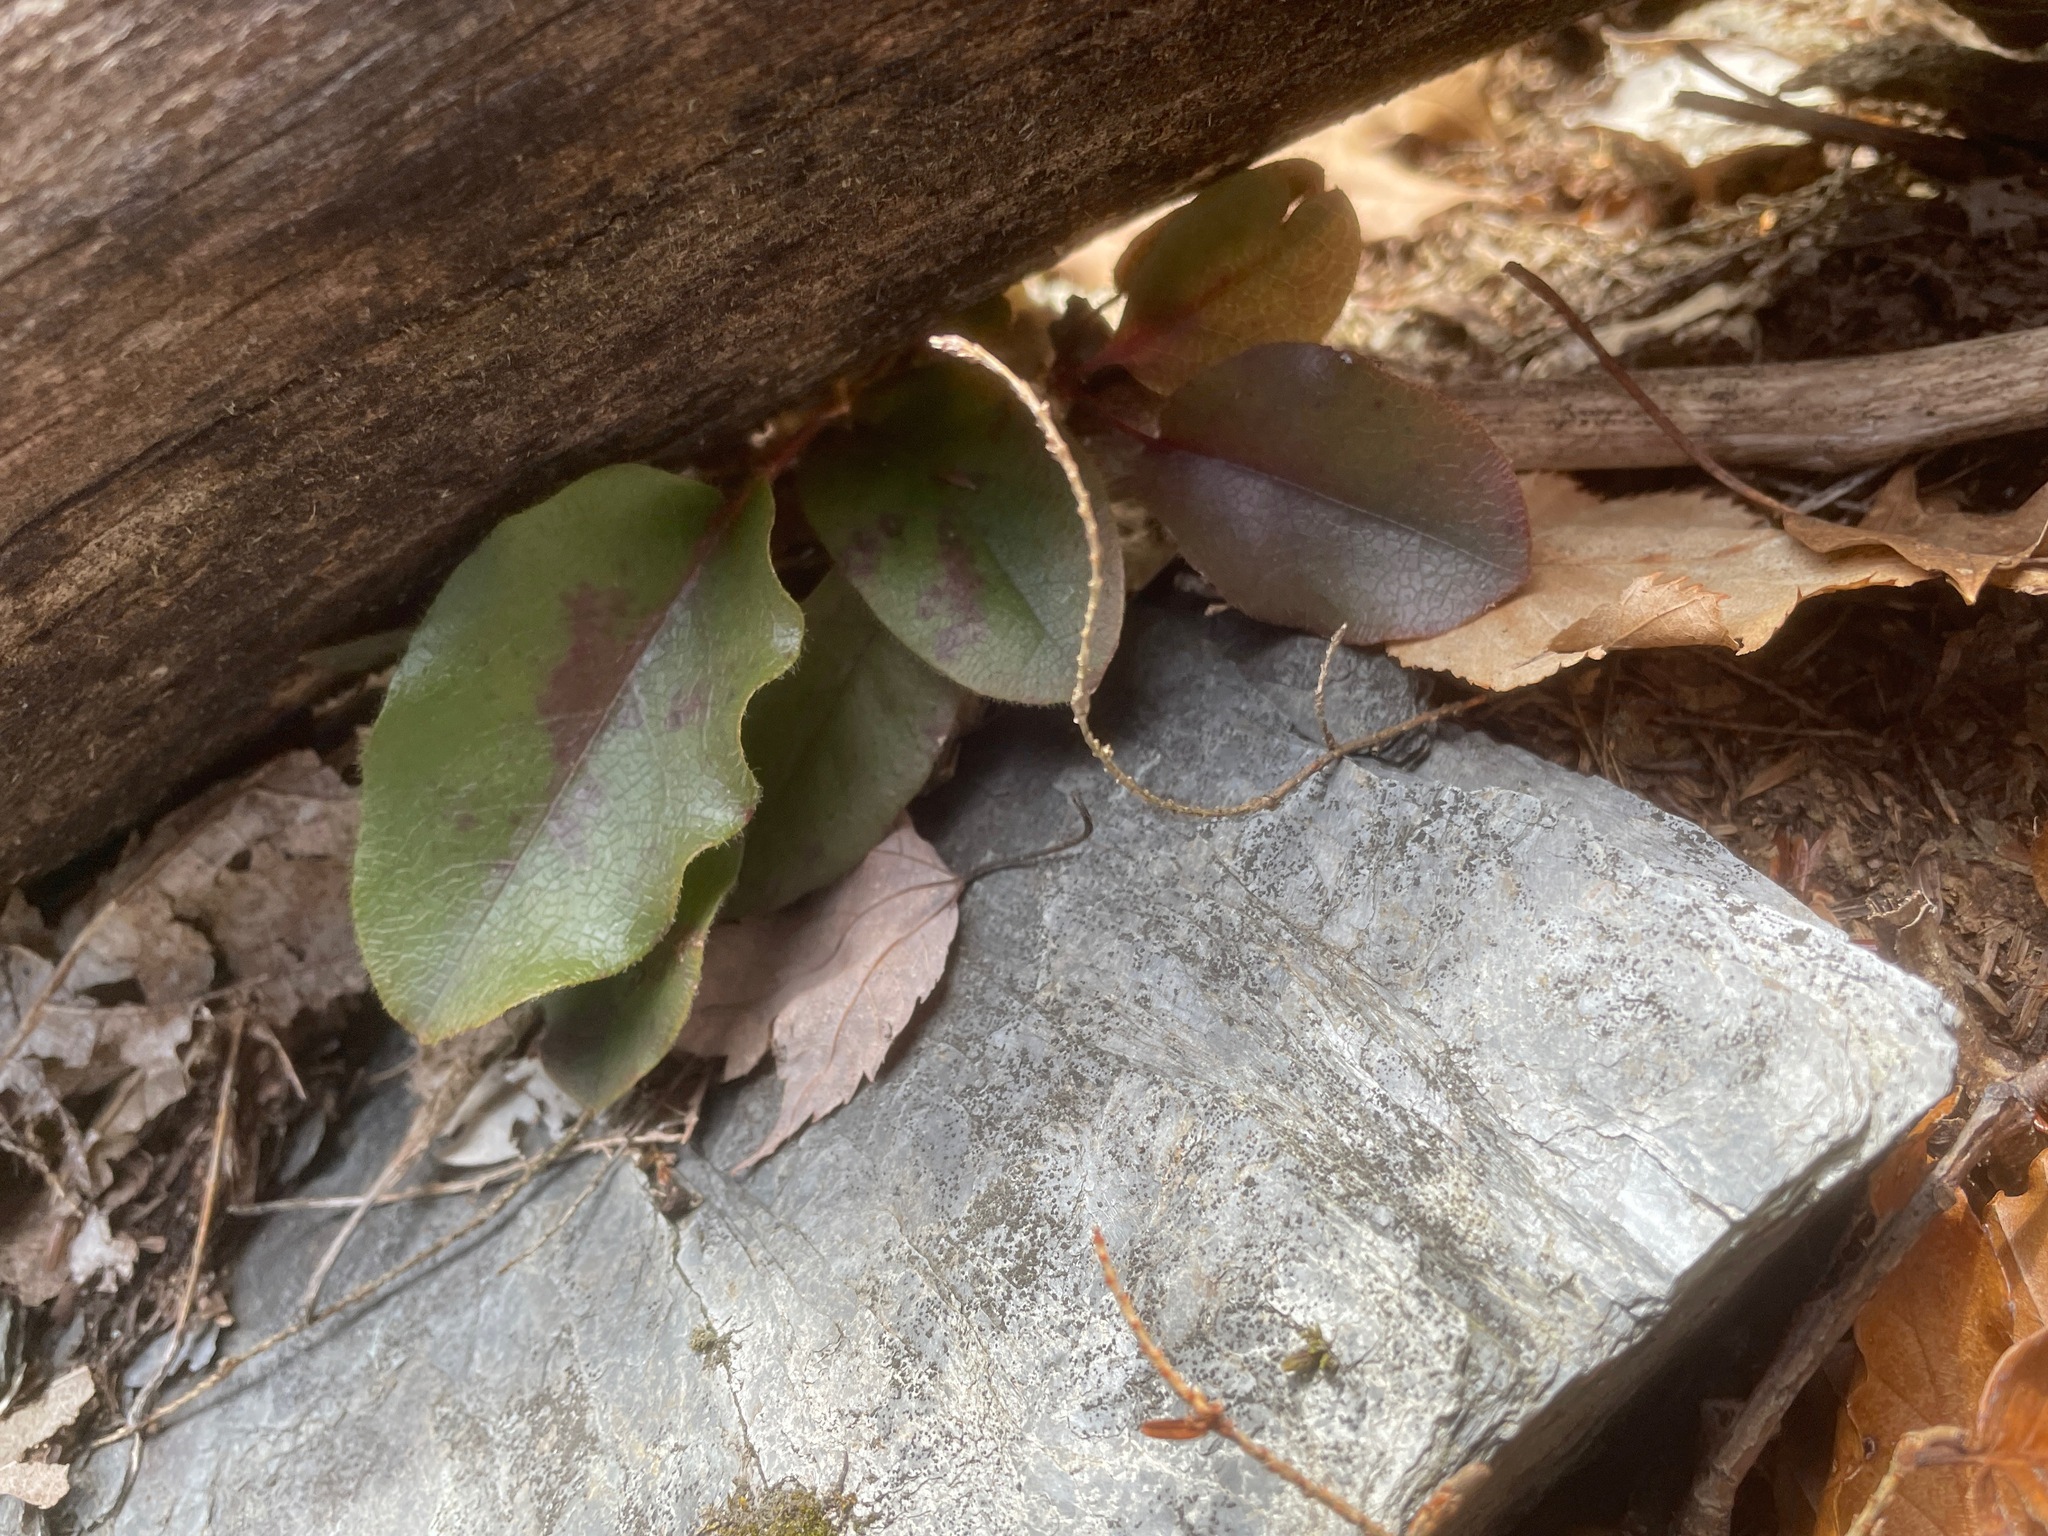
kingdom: Plantae
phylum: Tracheophyta
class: Magnoliopsida
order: Ericales
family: Ericaceae
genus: Epigaea
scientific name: Epigaea repens
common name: Gravelroot
